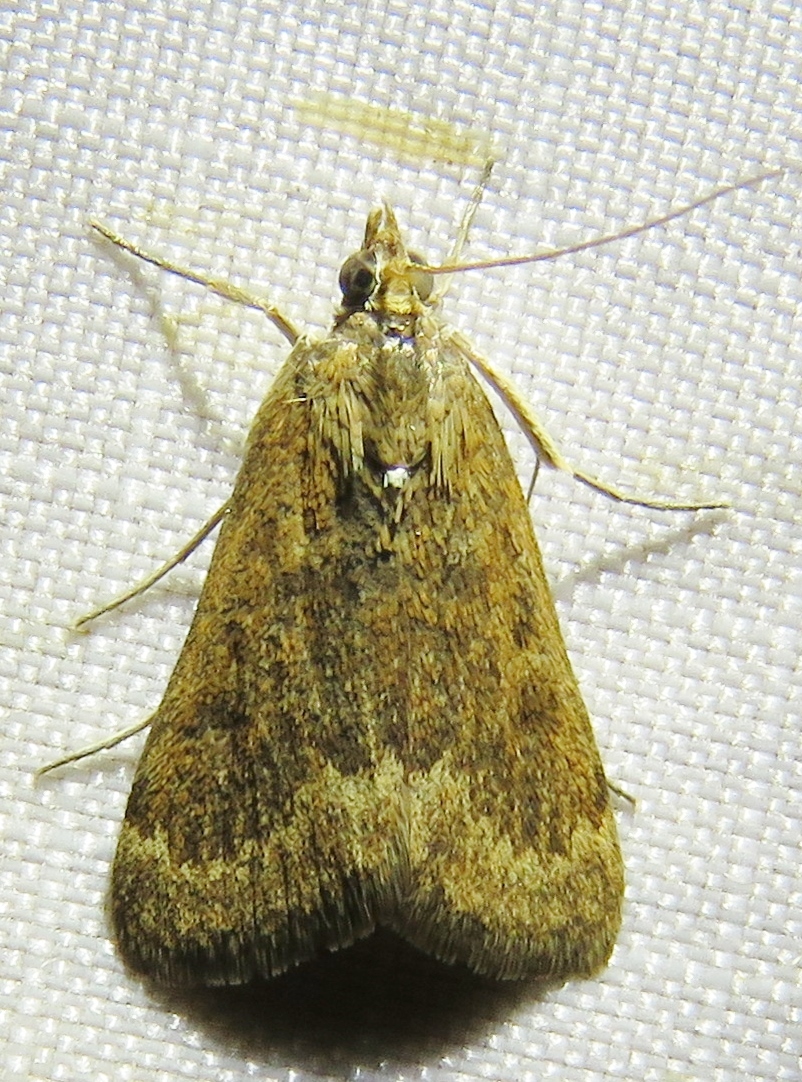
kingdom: Animalia
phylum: Arthropoda
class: Insecta
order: Lepidoptera
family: Crambidae
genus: Achyra
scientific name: Achyra rantalis
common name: Garden webworm
